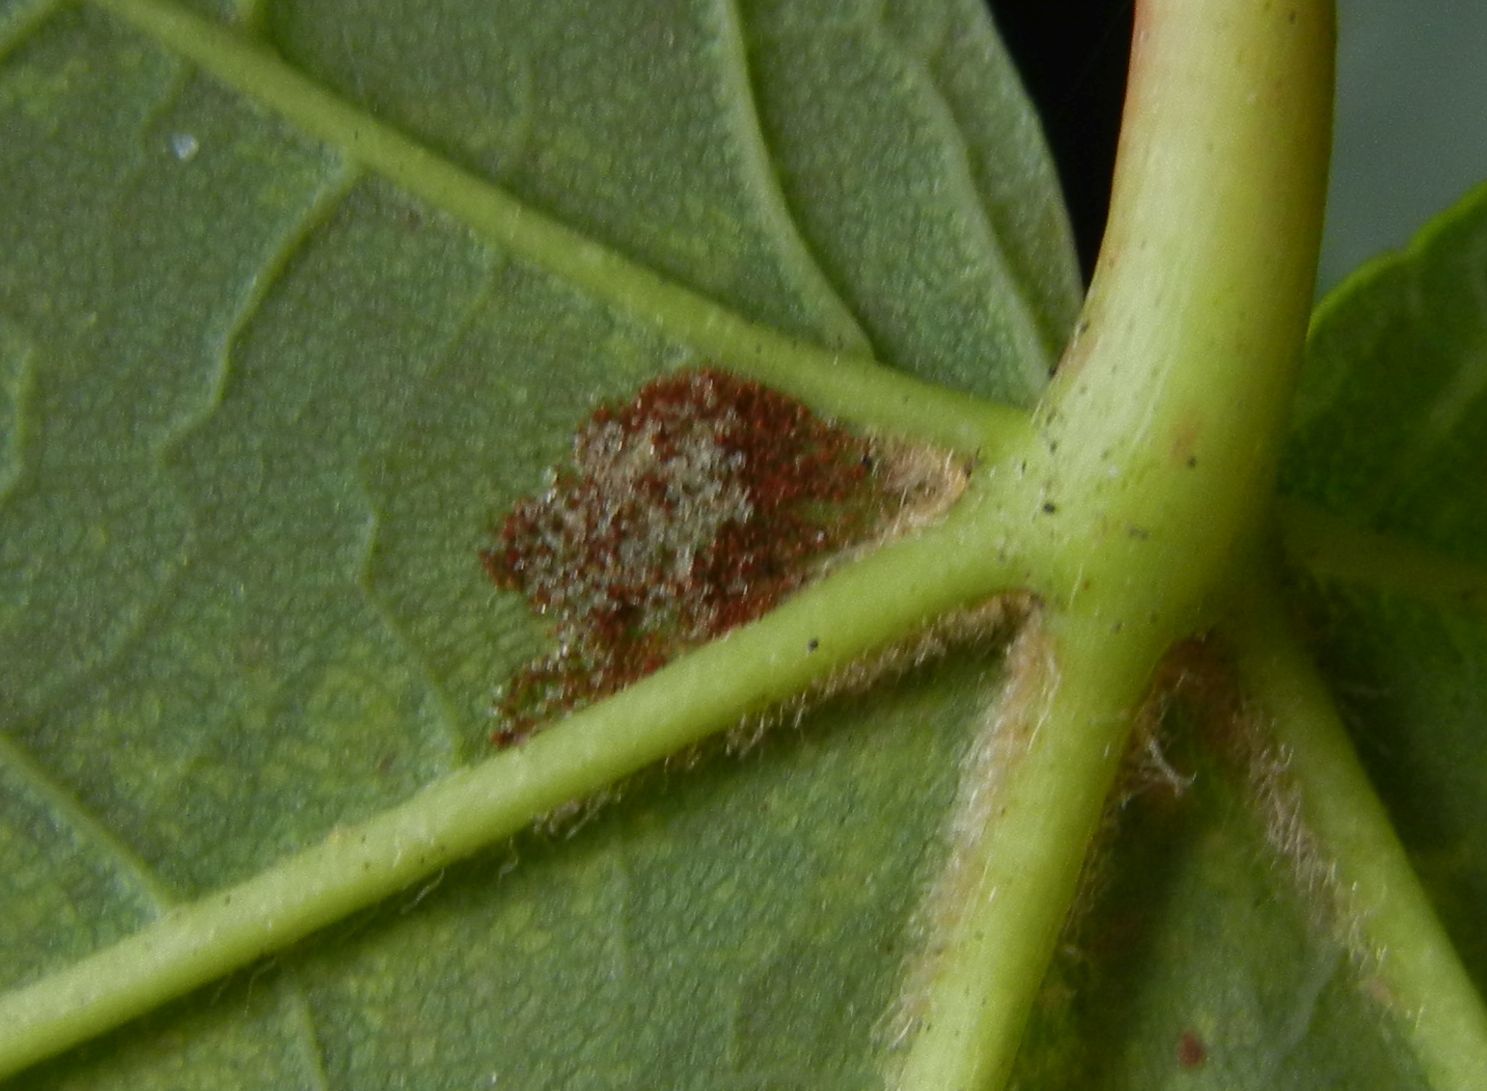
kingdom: Animalia
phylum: Arthropoda
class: Arachnida
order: Trombidiformes
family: Eriophyidae
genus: Aceria
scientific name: Aceria pseudoplatani
